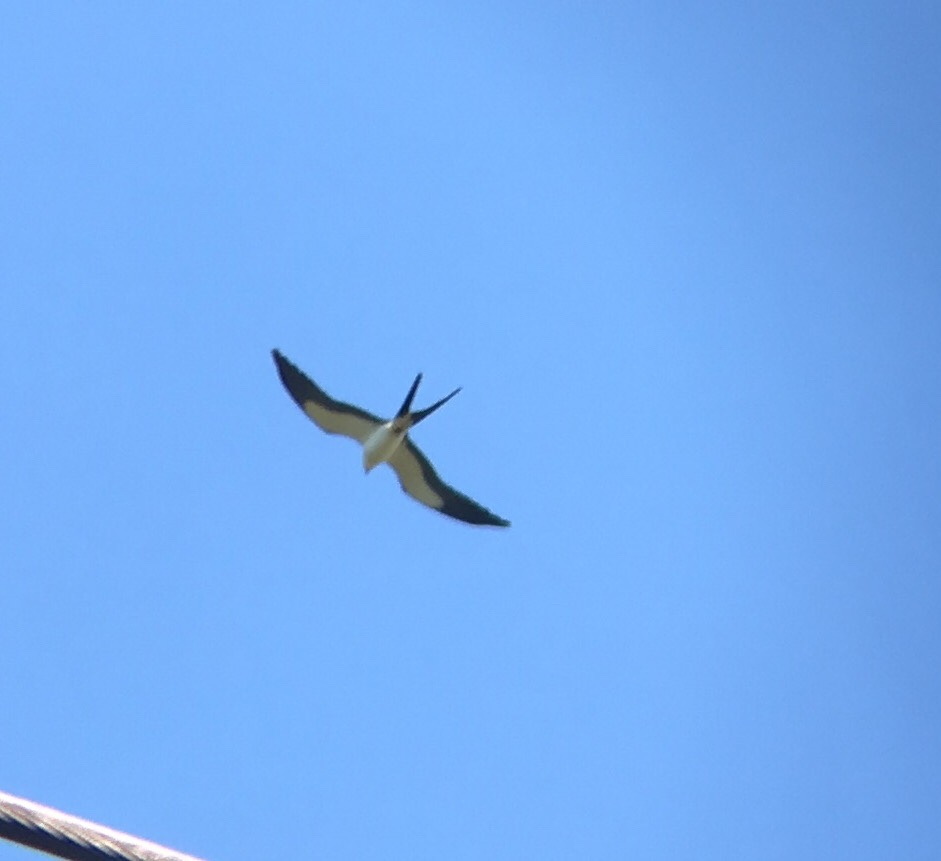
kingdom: Animalia
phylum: Chordata
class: Aves
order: Accipitriformes
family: Accipitridae
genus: Elanoides
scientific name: Elanoides forficatus
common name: Swallow-tailed kite
